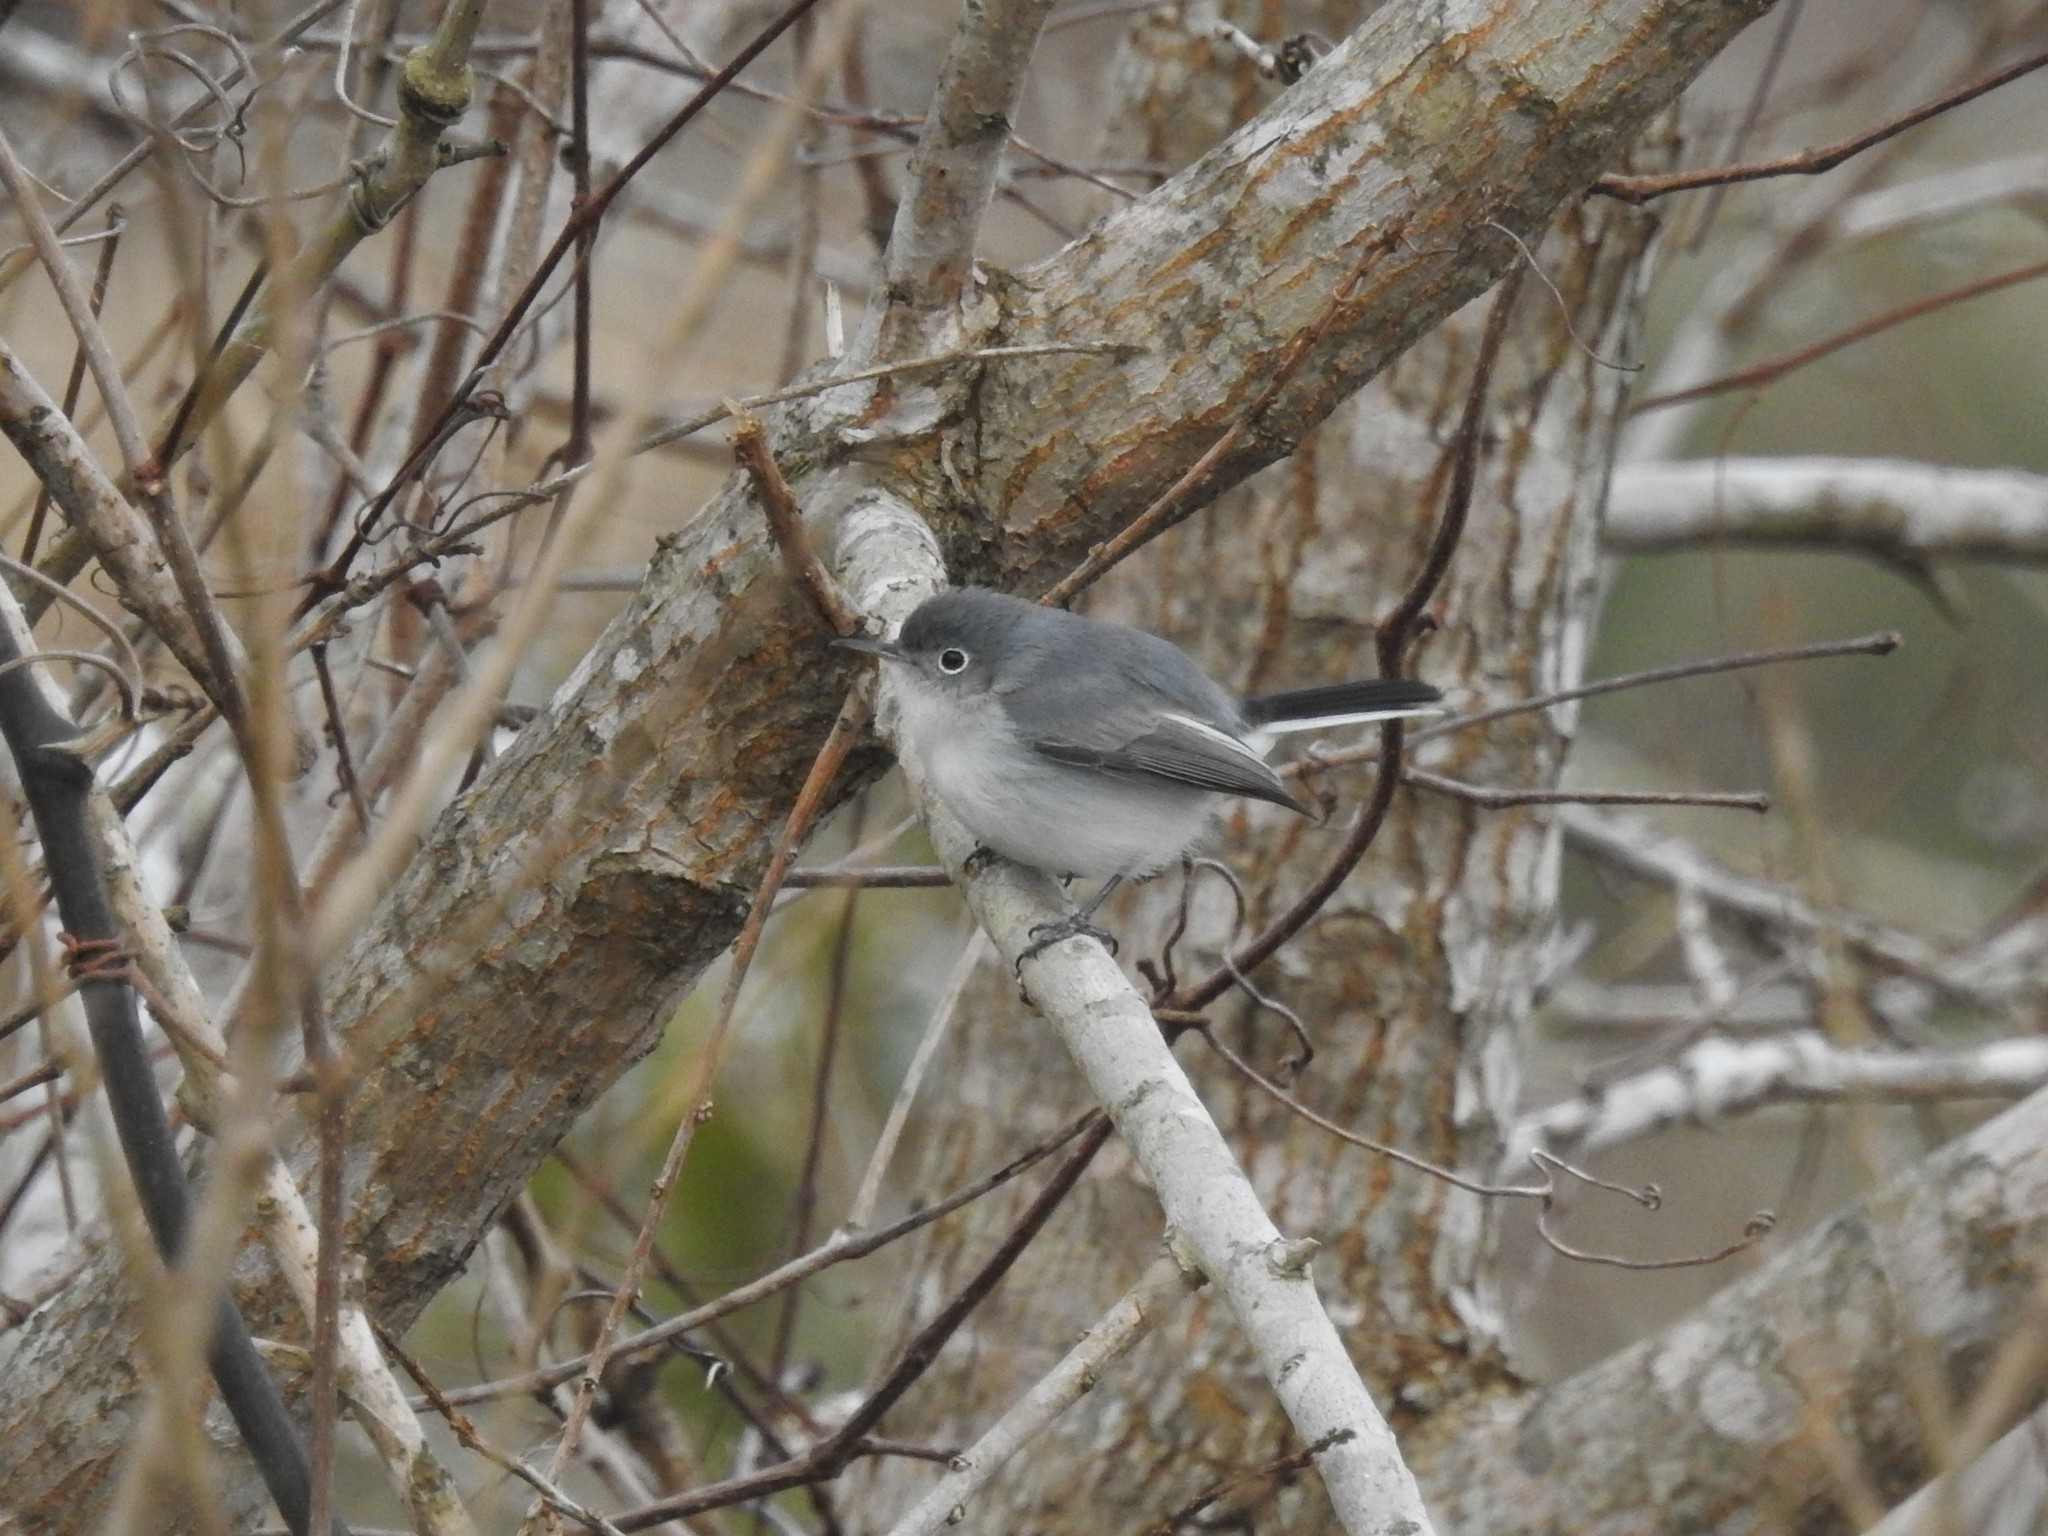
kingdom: Animalia
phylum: Chordata
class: Aves
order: Passeriformes
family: Polioptilidae
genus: Polioptila
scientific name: Polioptila caerulea
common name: Blue-gray gnatcatcher
